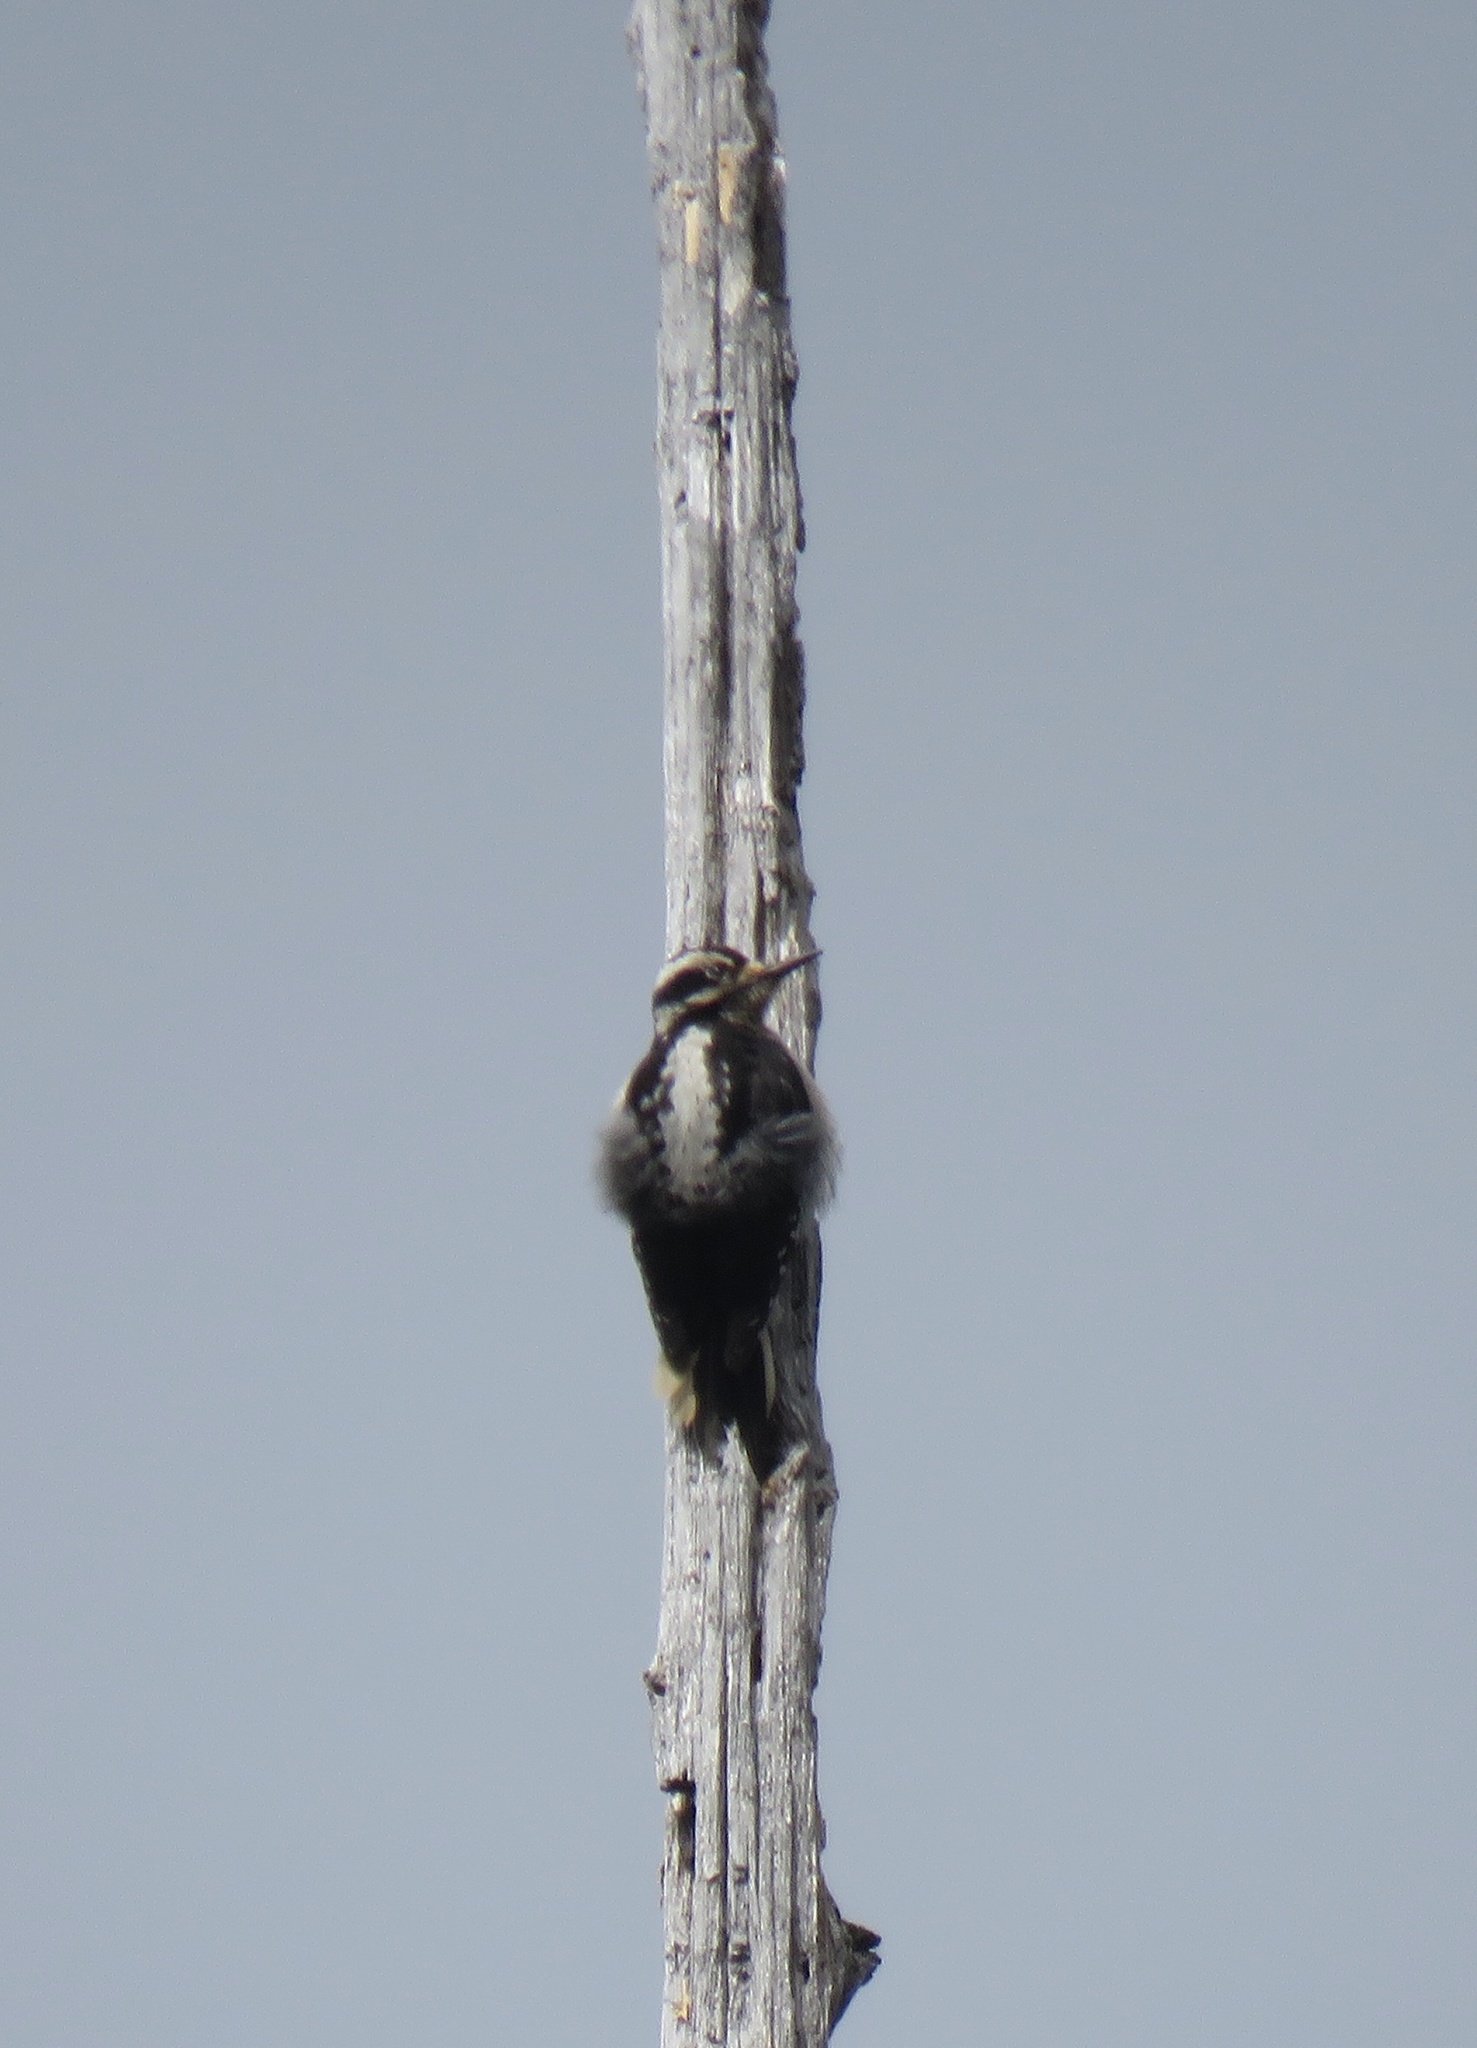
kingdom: Animalia
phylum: Chordata
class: Aves
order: Piciformes
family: Picidae
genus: Leuconotopicus
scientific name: Leuconotopicus villosus
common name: Hairy woodpecker
